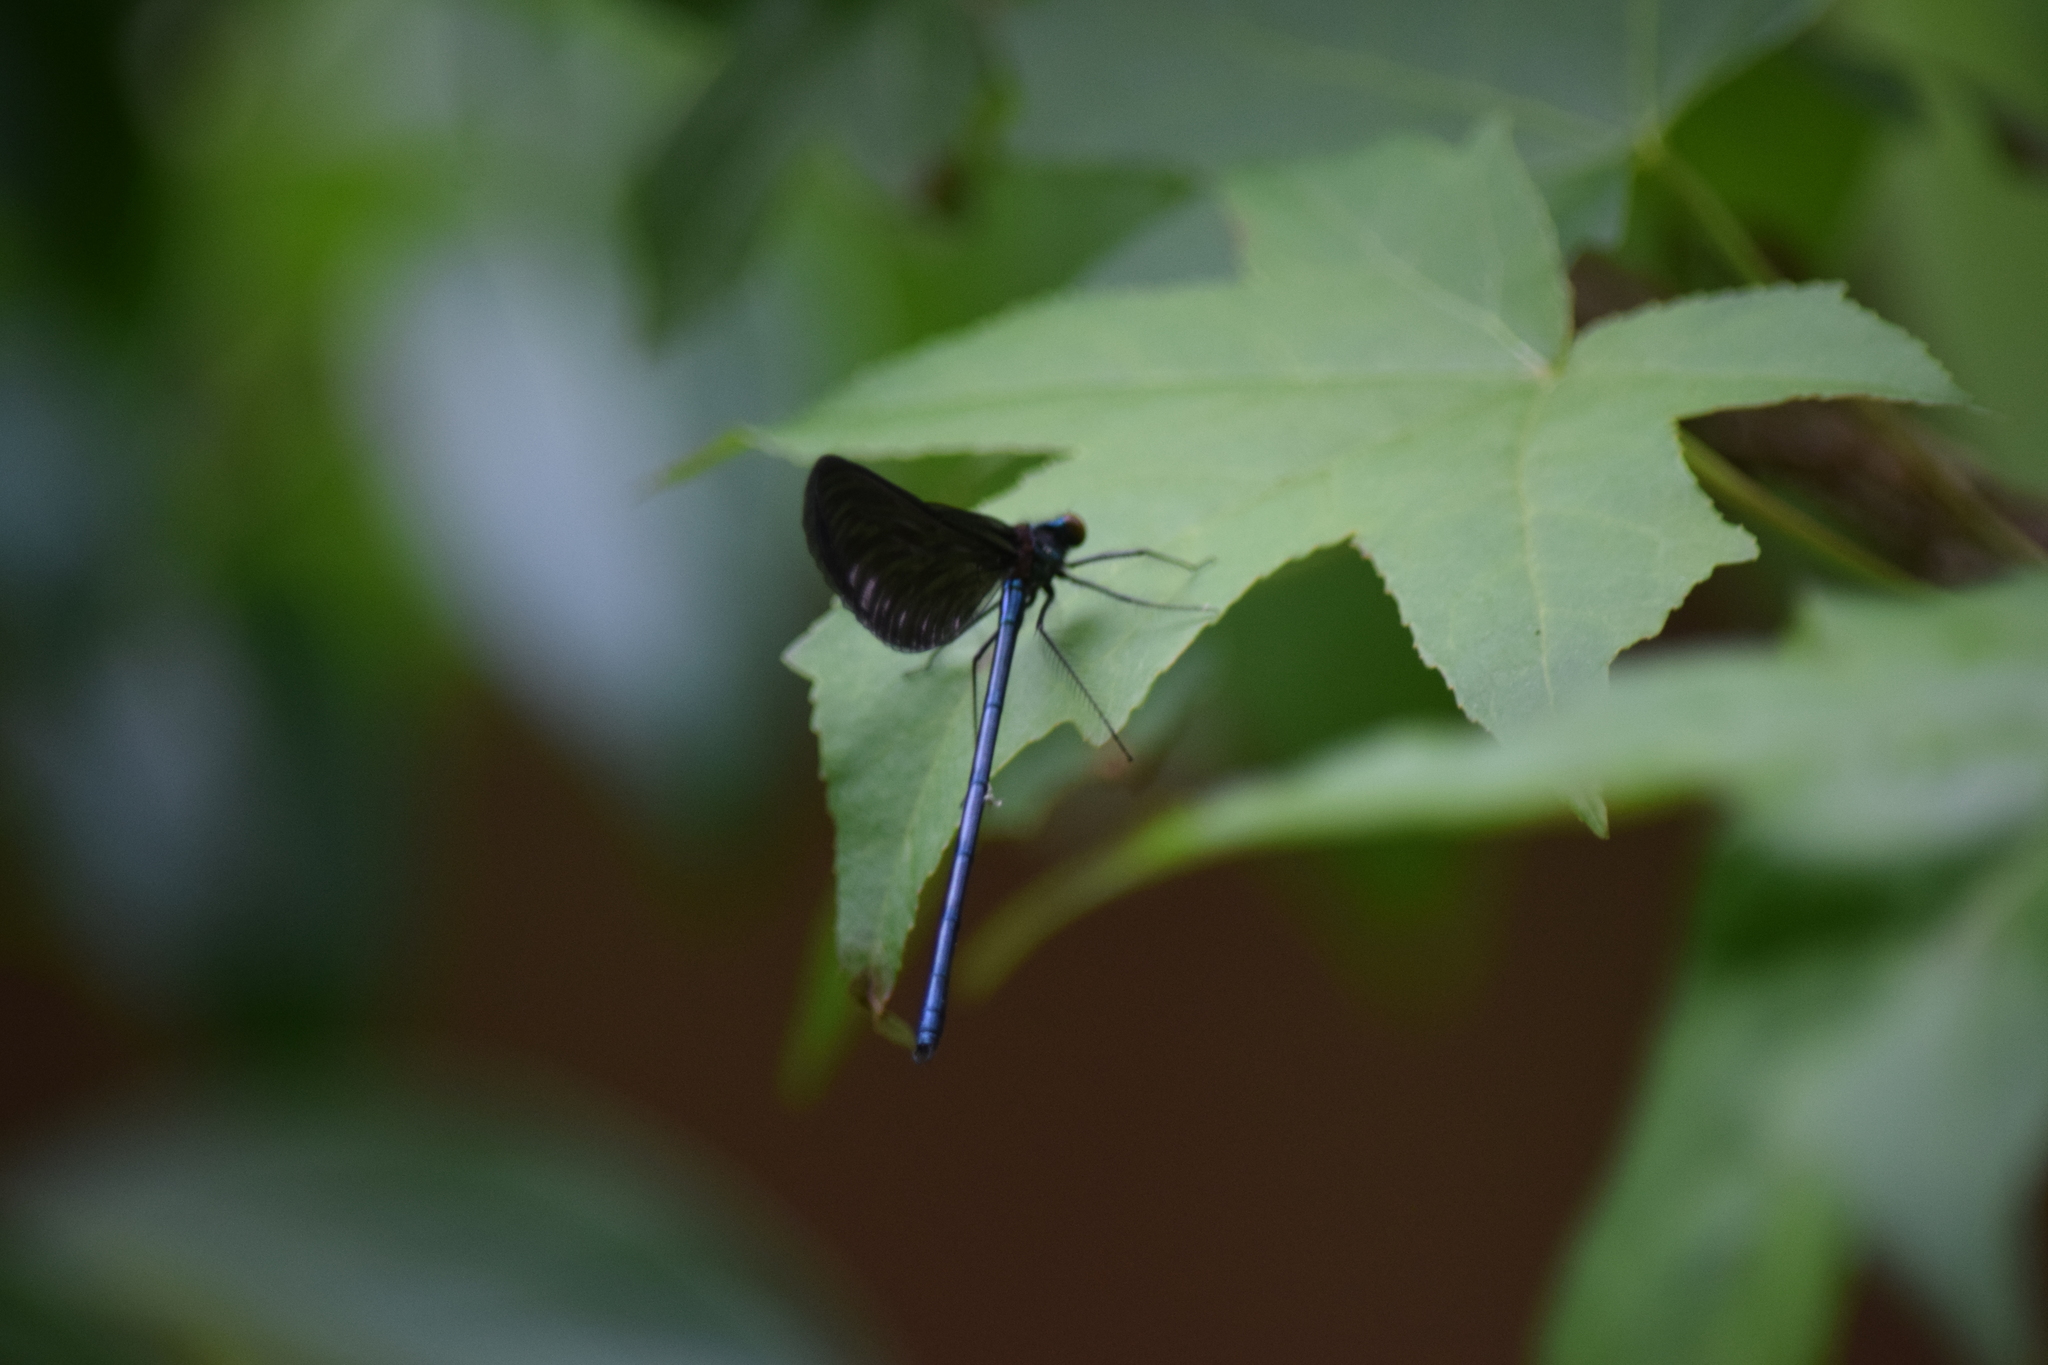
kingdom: Animalia
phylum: Arthropoda
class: Insecta
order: Odonata
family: Calopterygidae
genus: Calopteryx
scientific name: Calopteryx maculata
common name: Ebony jewelwing
